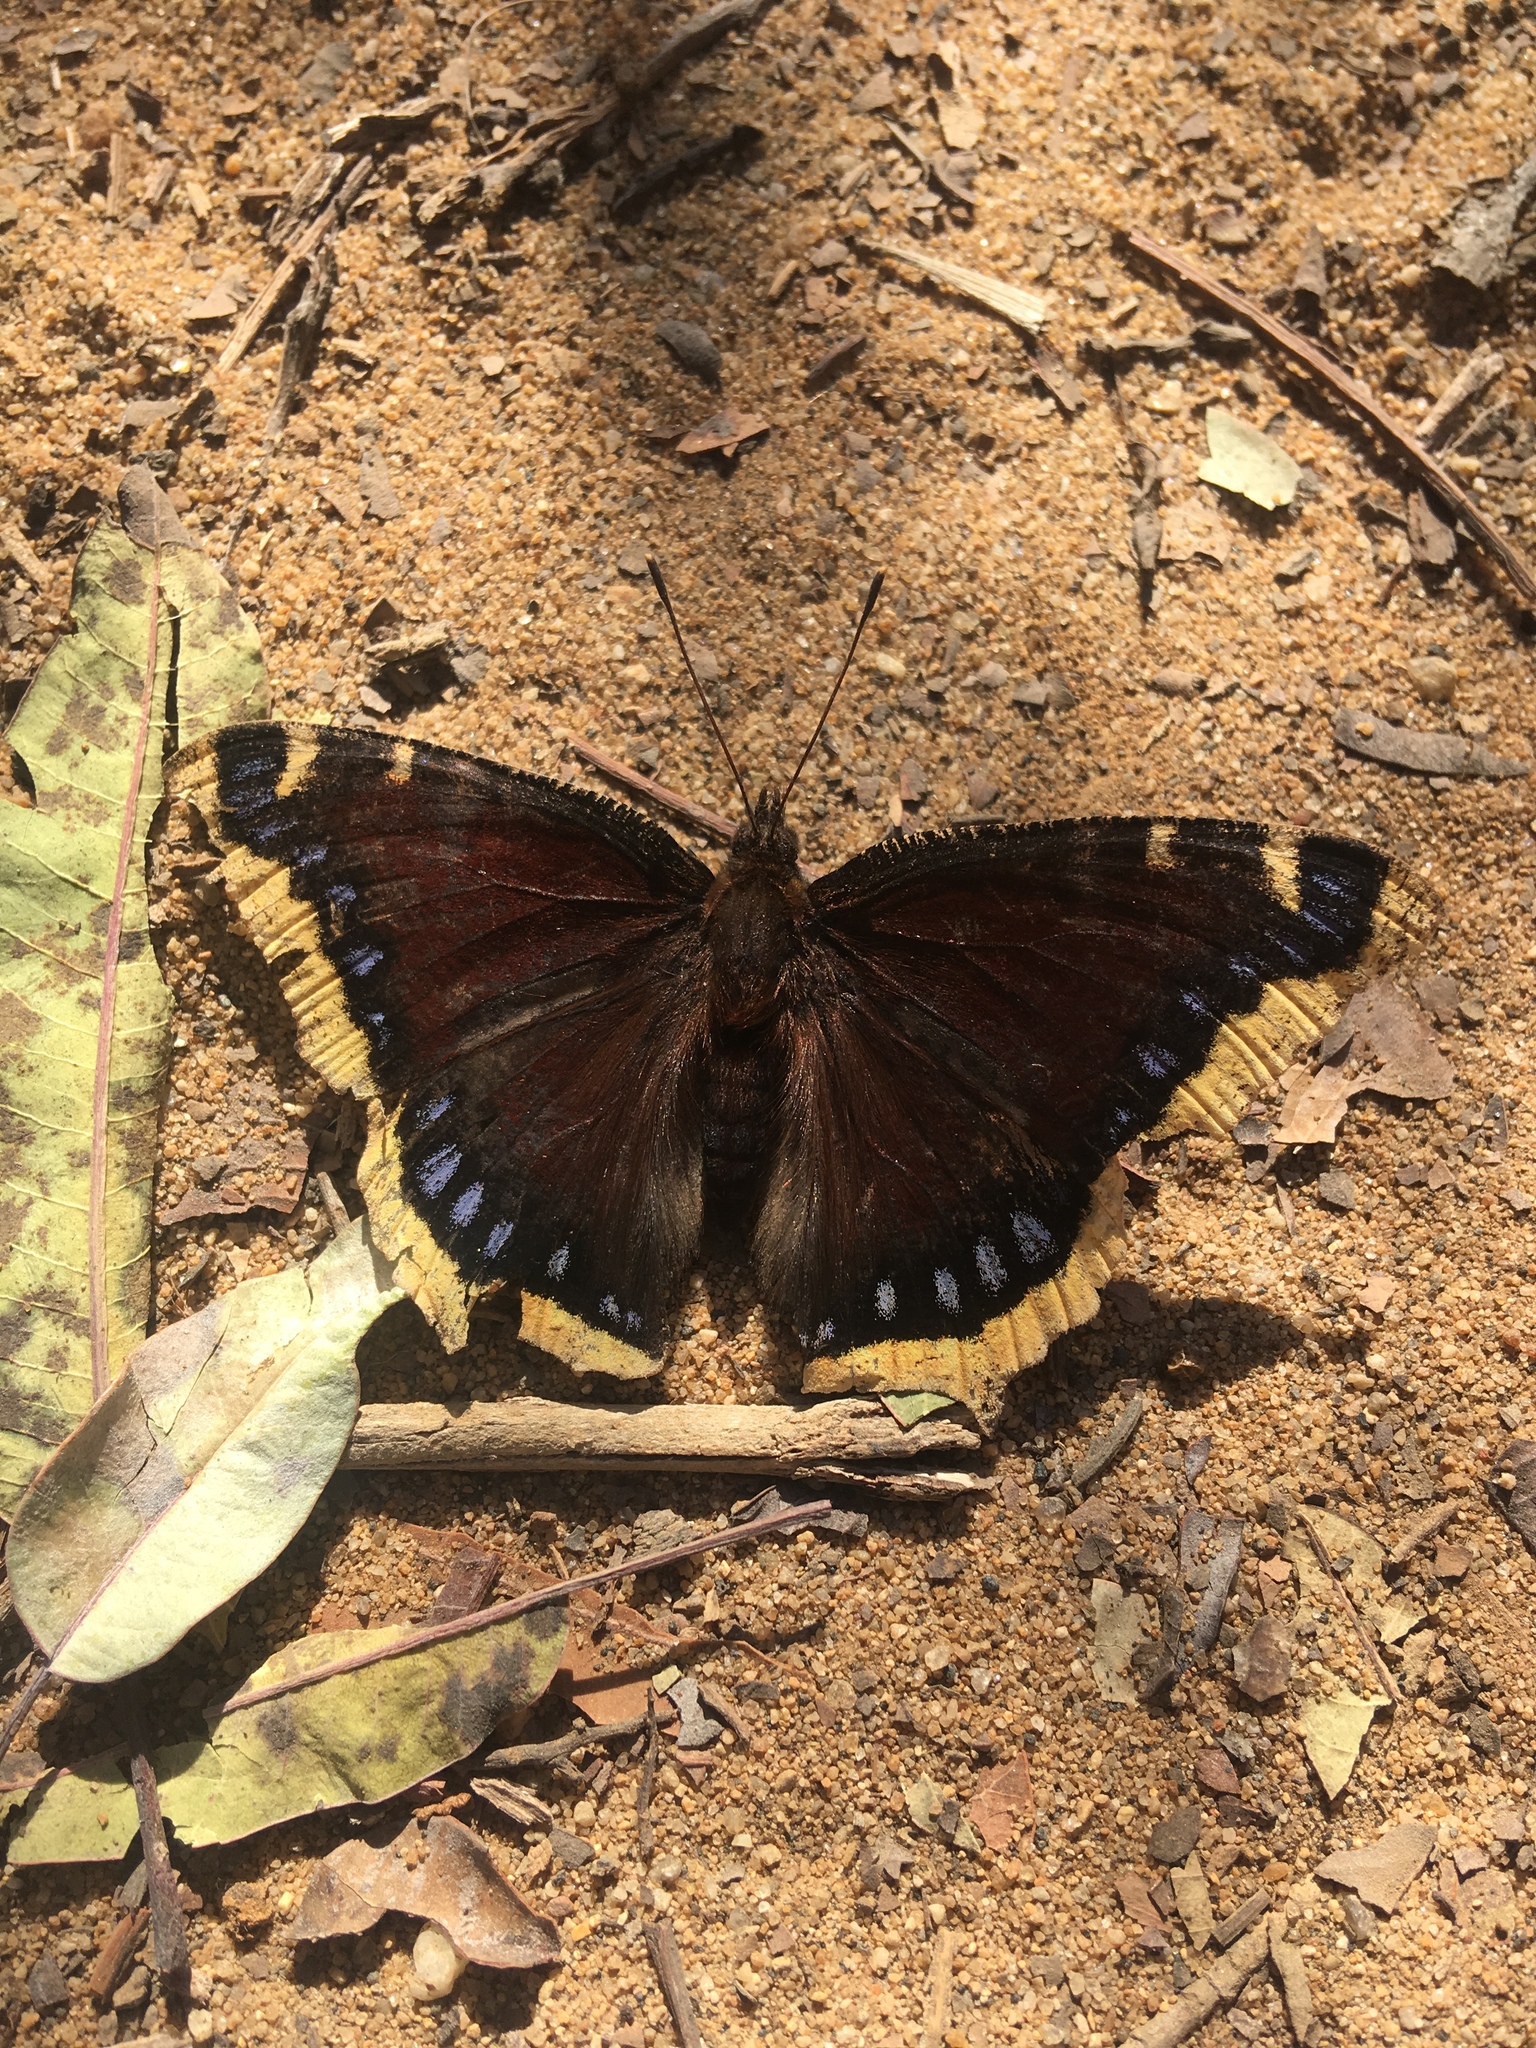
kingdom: Animalia
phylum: Arthropoda
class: Insecta
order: Lepidoptera
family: Nymphalidae
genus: Nymphalis
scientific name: Nymphalis antiopa
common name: Camberwell beauty
